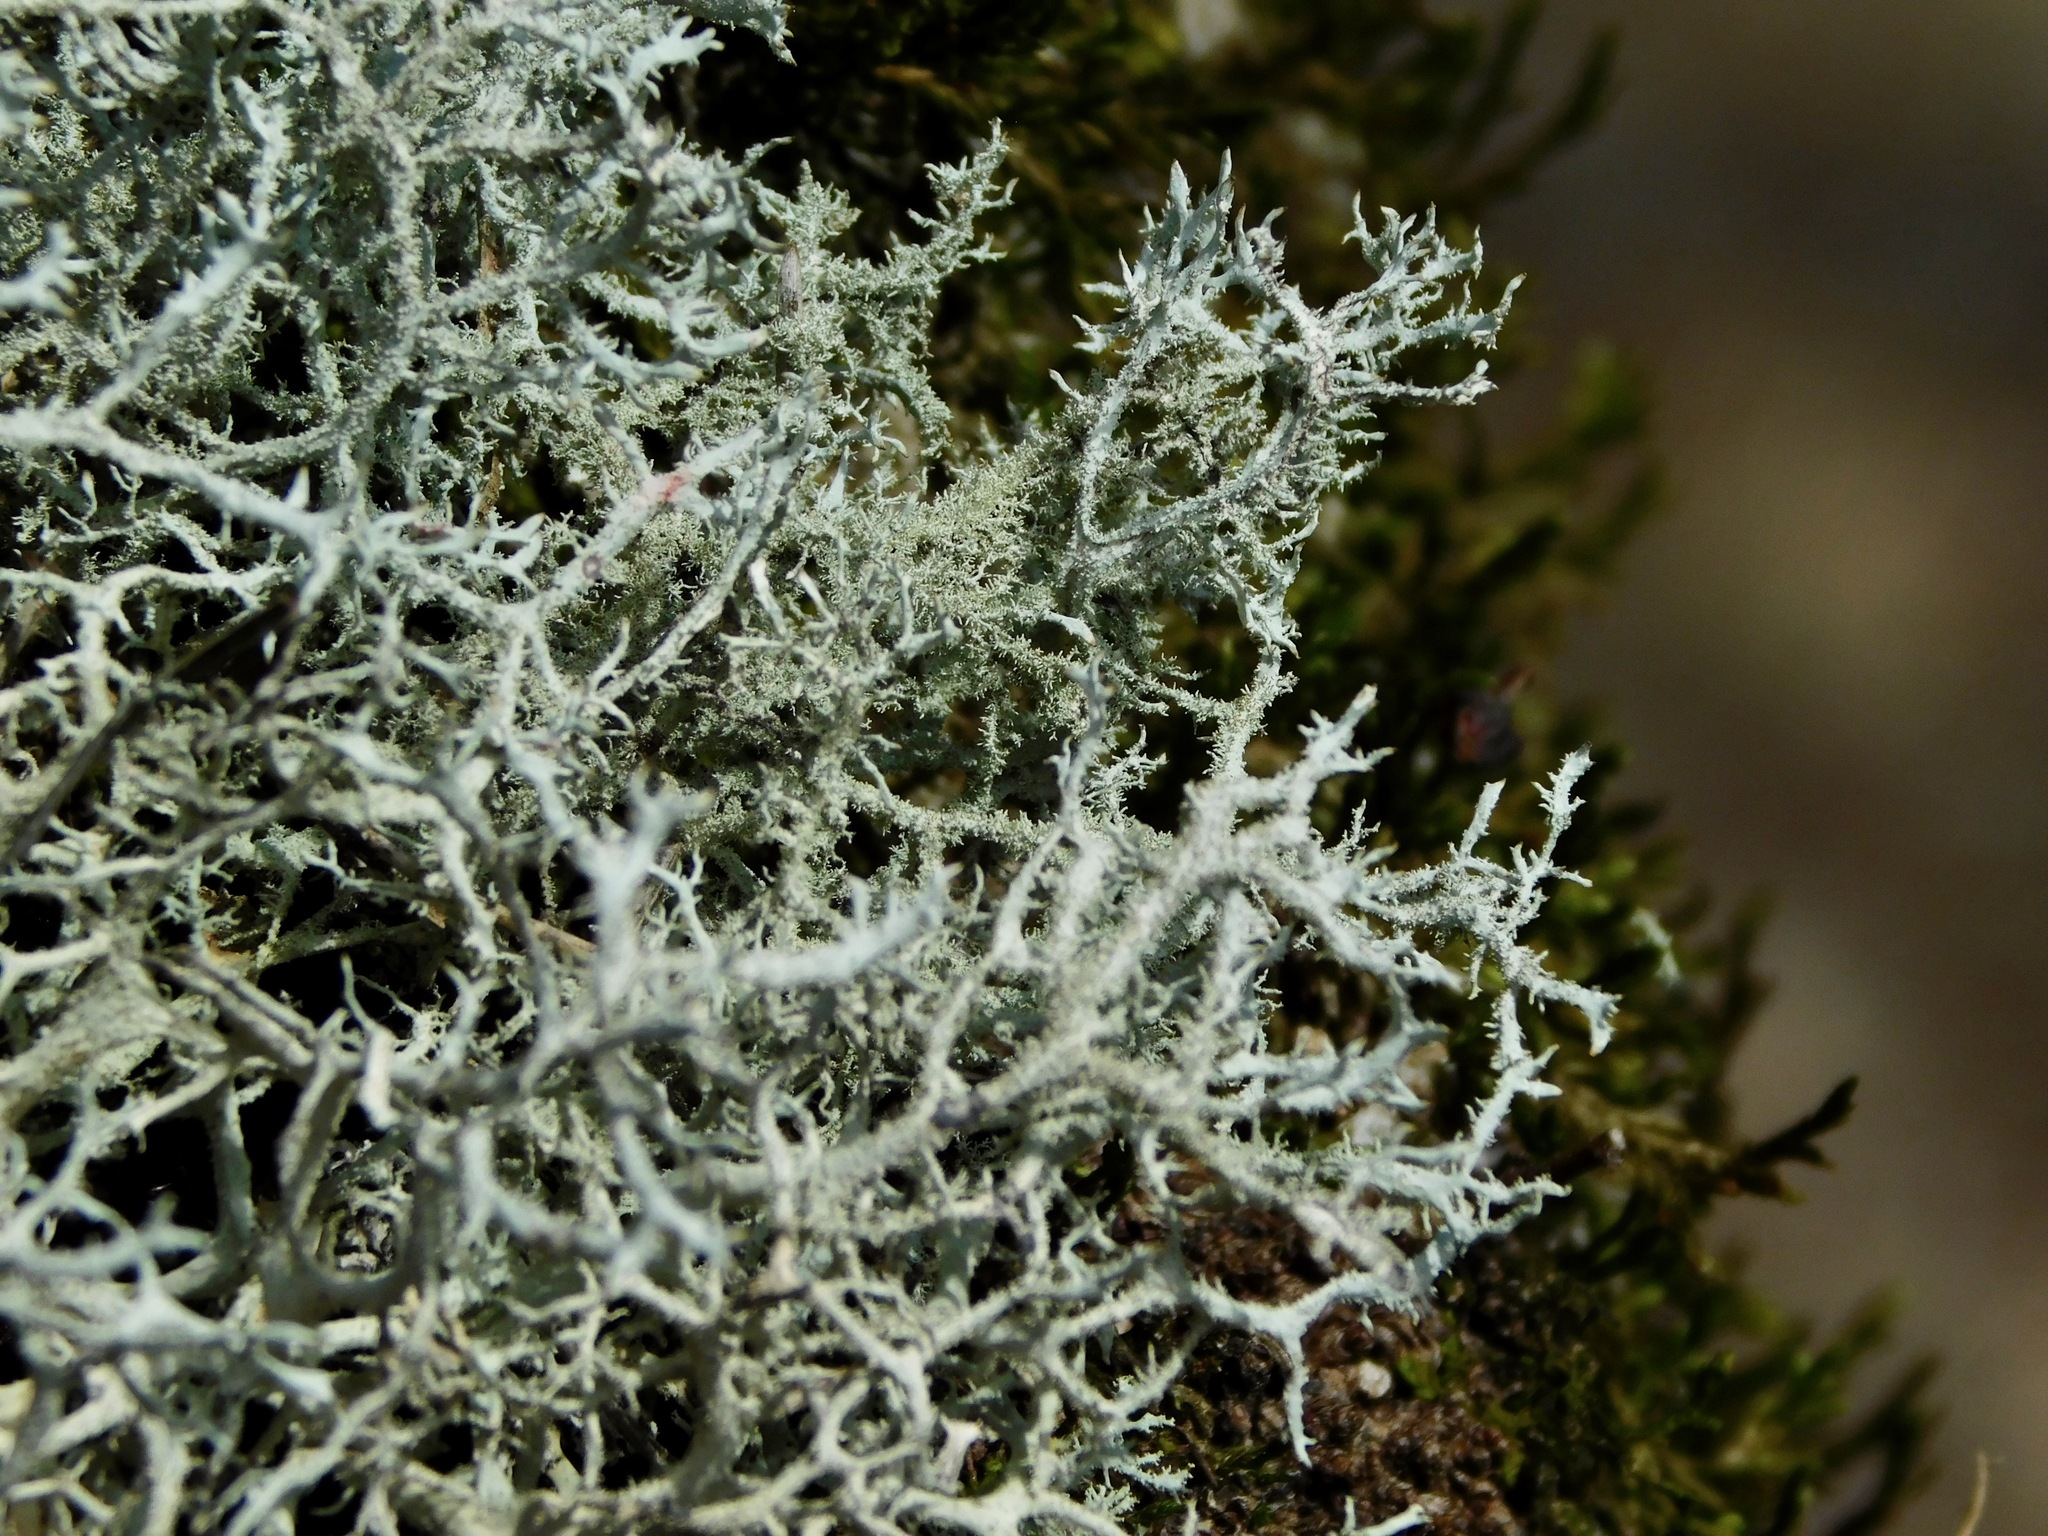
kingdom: Fungi
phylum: Ascomycota
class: Lecanoromycetes
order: Lecanorales
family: Parmeliaceae
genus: Pseudevernia
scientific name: Pseudevernia consocians
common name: Common antler lichen
